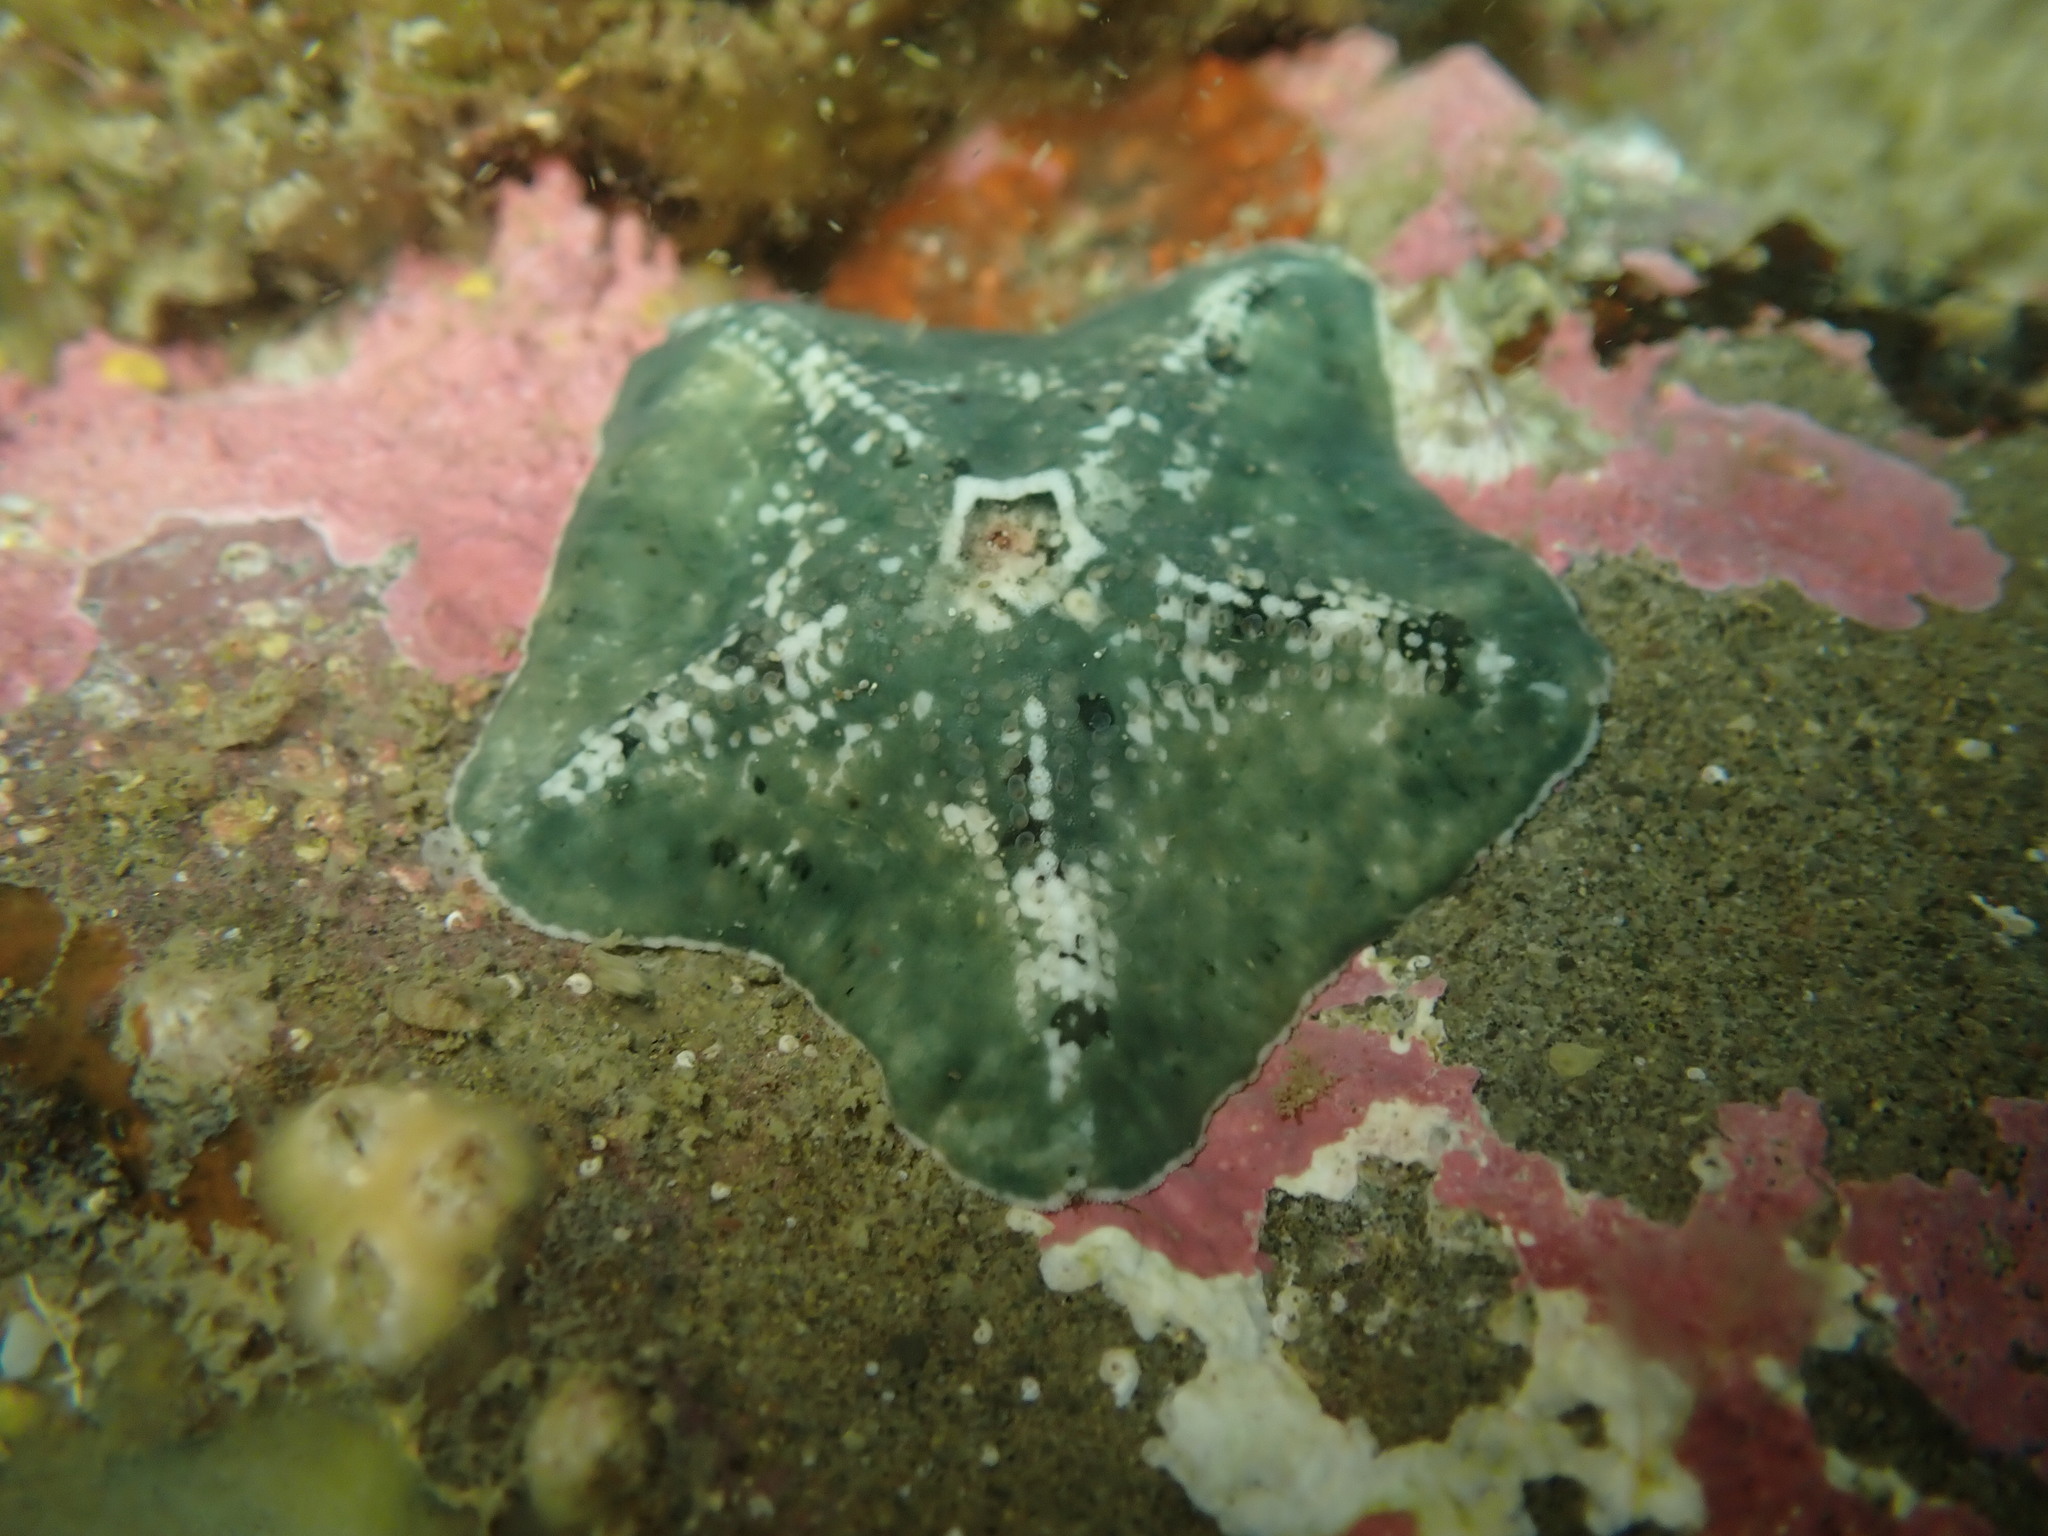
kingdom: Animalia
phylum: Echinodermata
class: Asteroidea
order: Valvatida
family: Asterinidae
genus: Stegnaster
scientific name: Stegnaster inflatus
